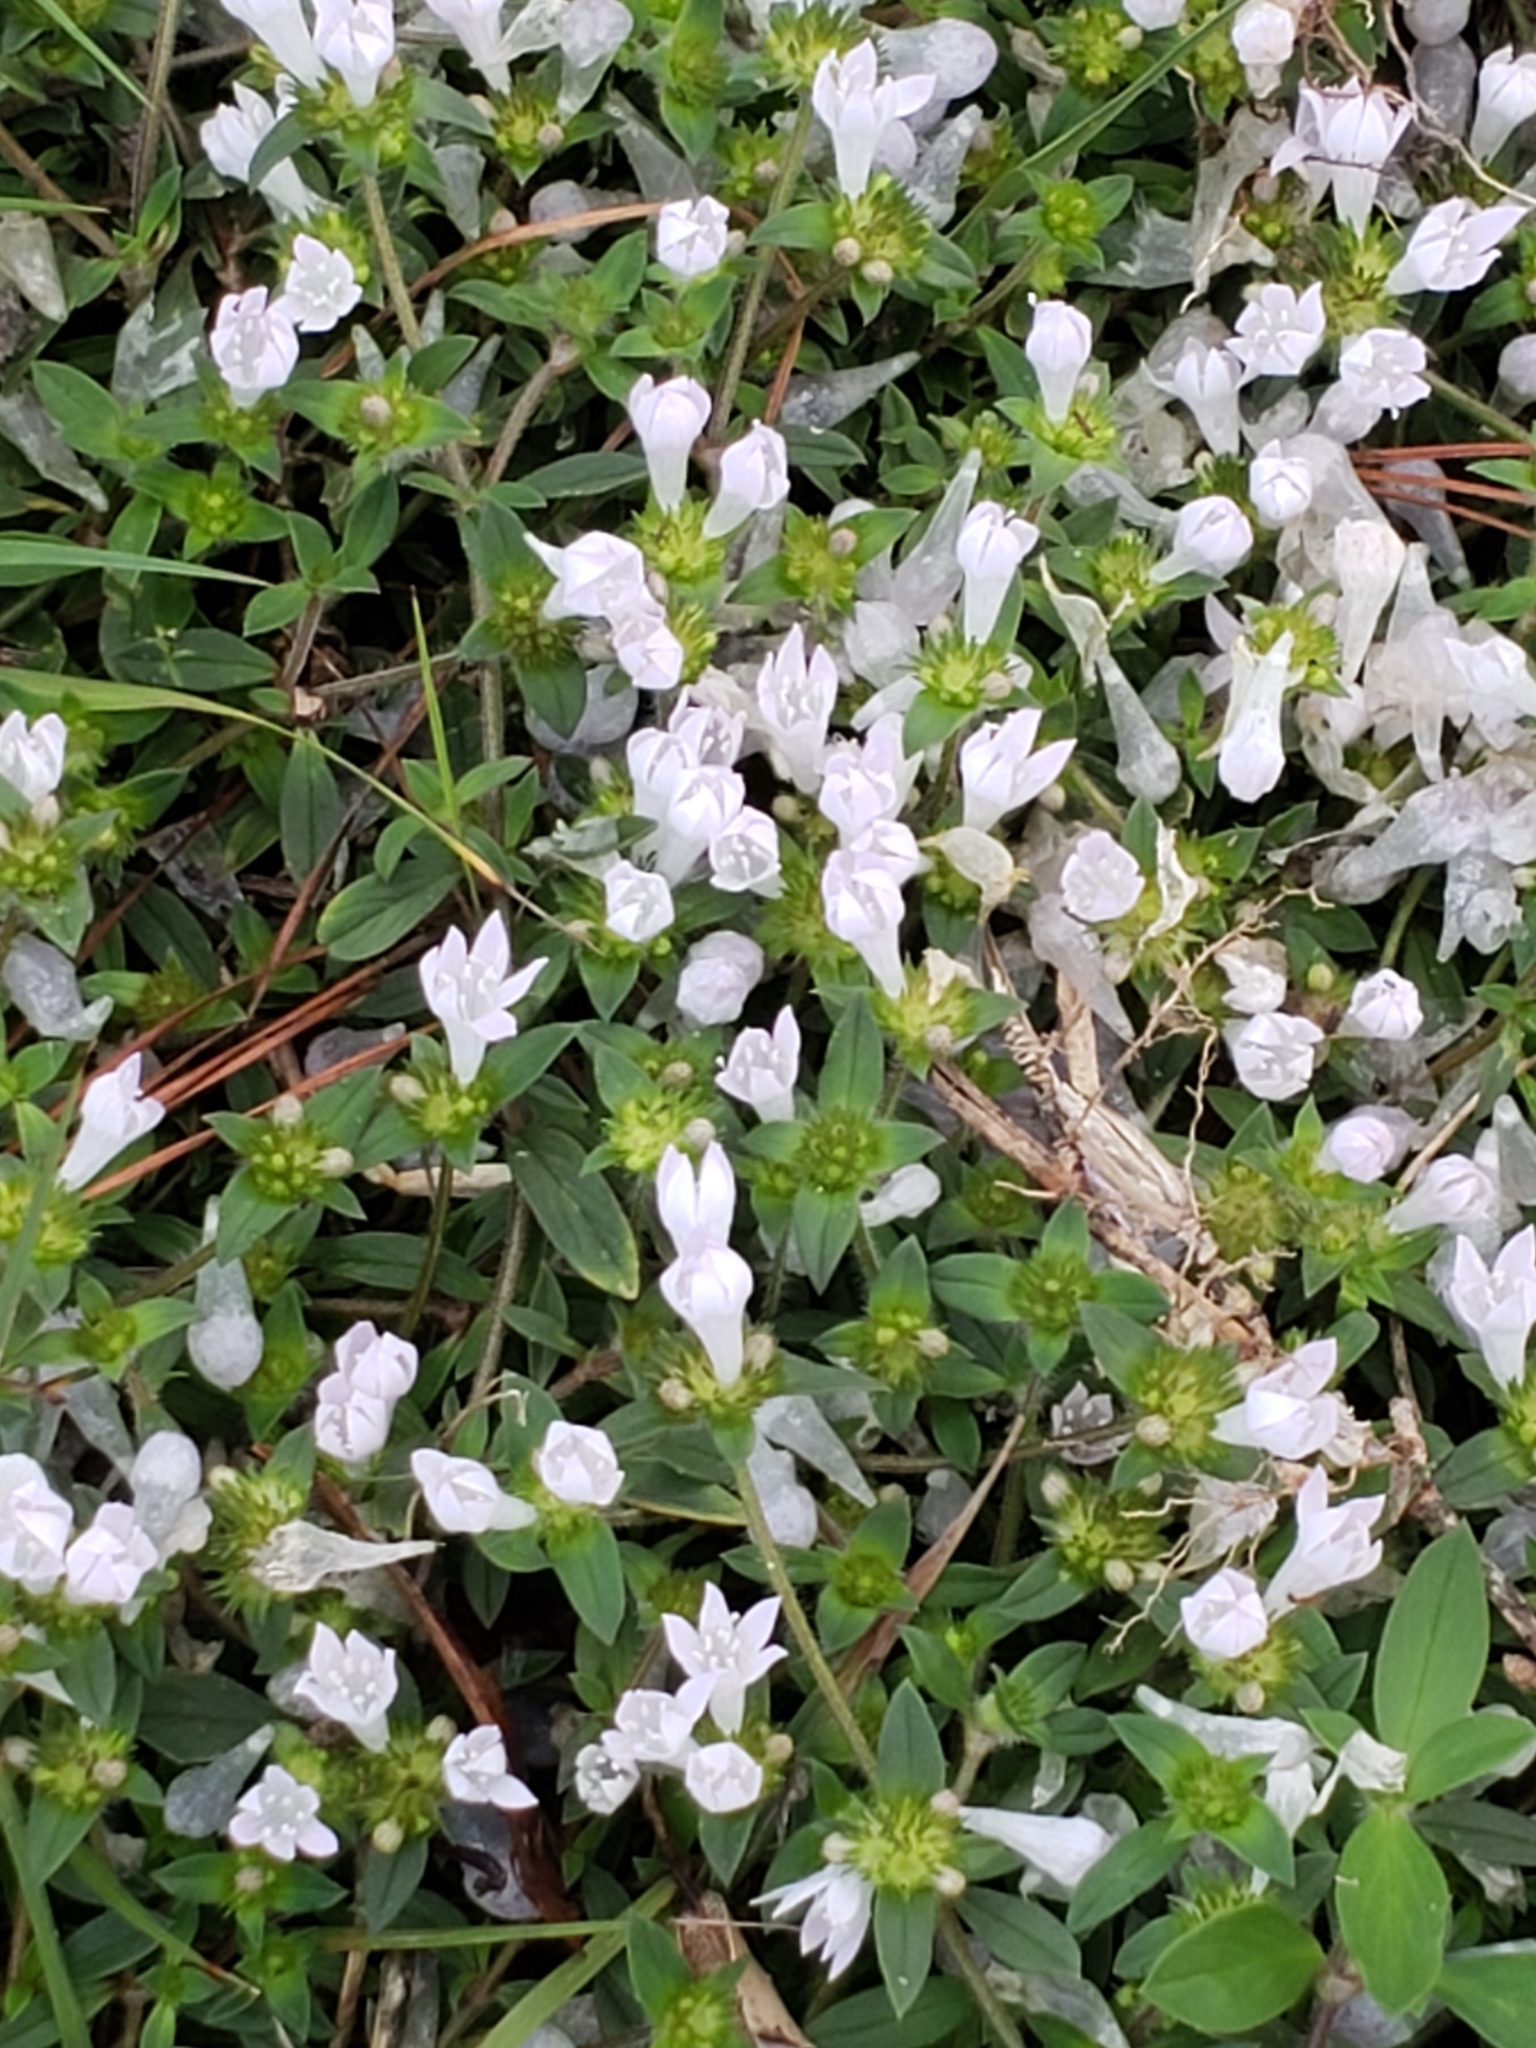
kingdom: Plantae
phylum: Tracheophyta
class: Magnoliopsida
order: Gentianales
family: Rubiaceae
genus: Richardia
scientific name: Richardia grandiflora
